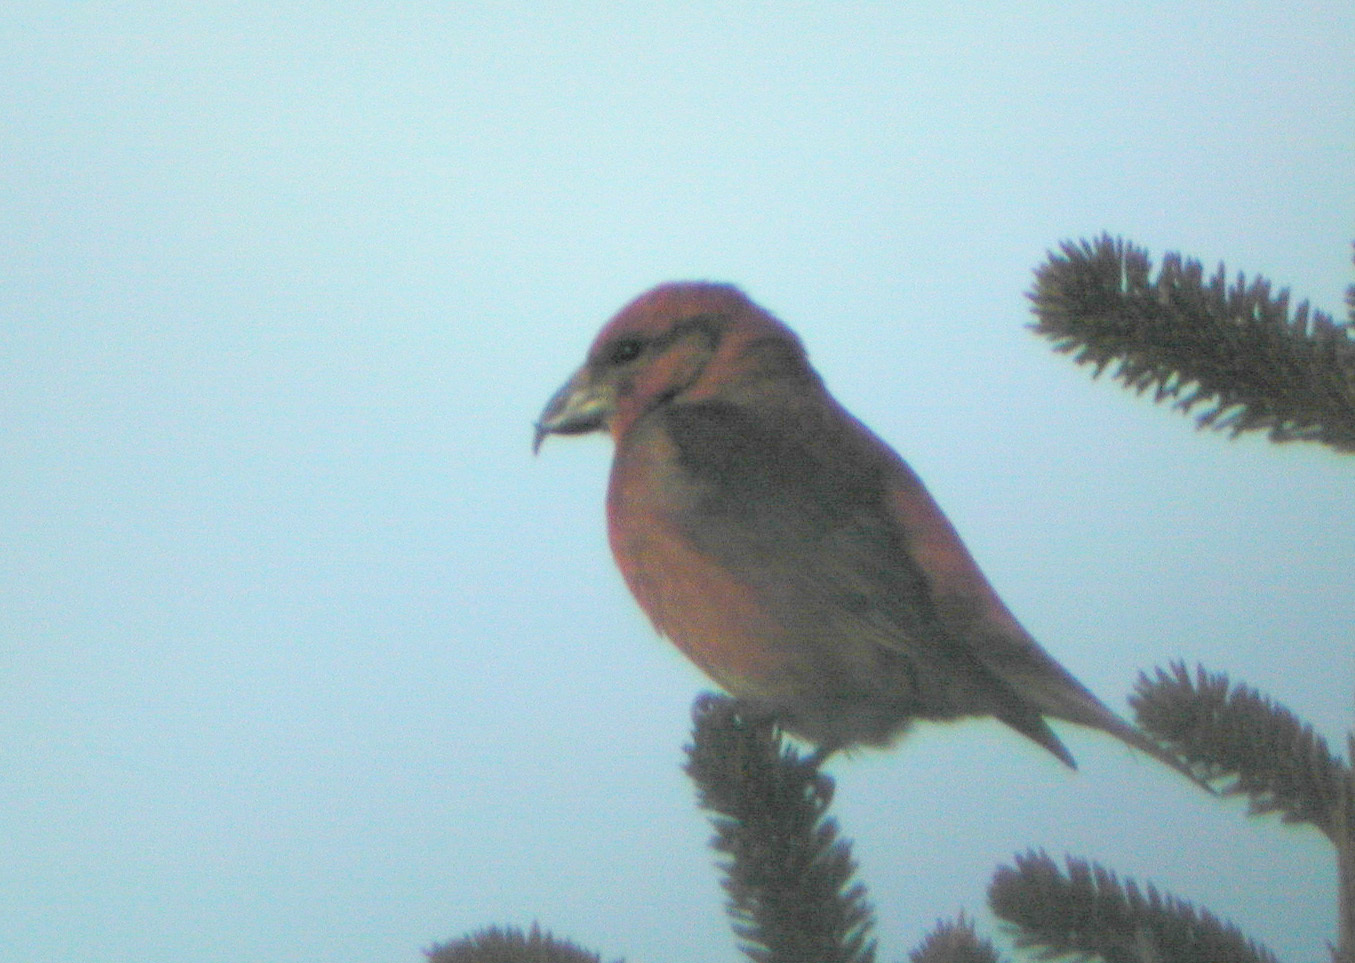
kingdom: Animalia
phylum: Chordata
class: Aves
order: Passeriformes
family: Fringillidae
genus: Loxia
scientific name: Loxia curvirostra
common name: Red crossbill
